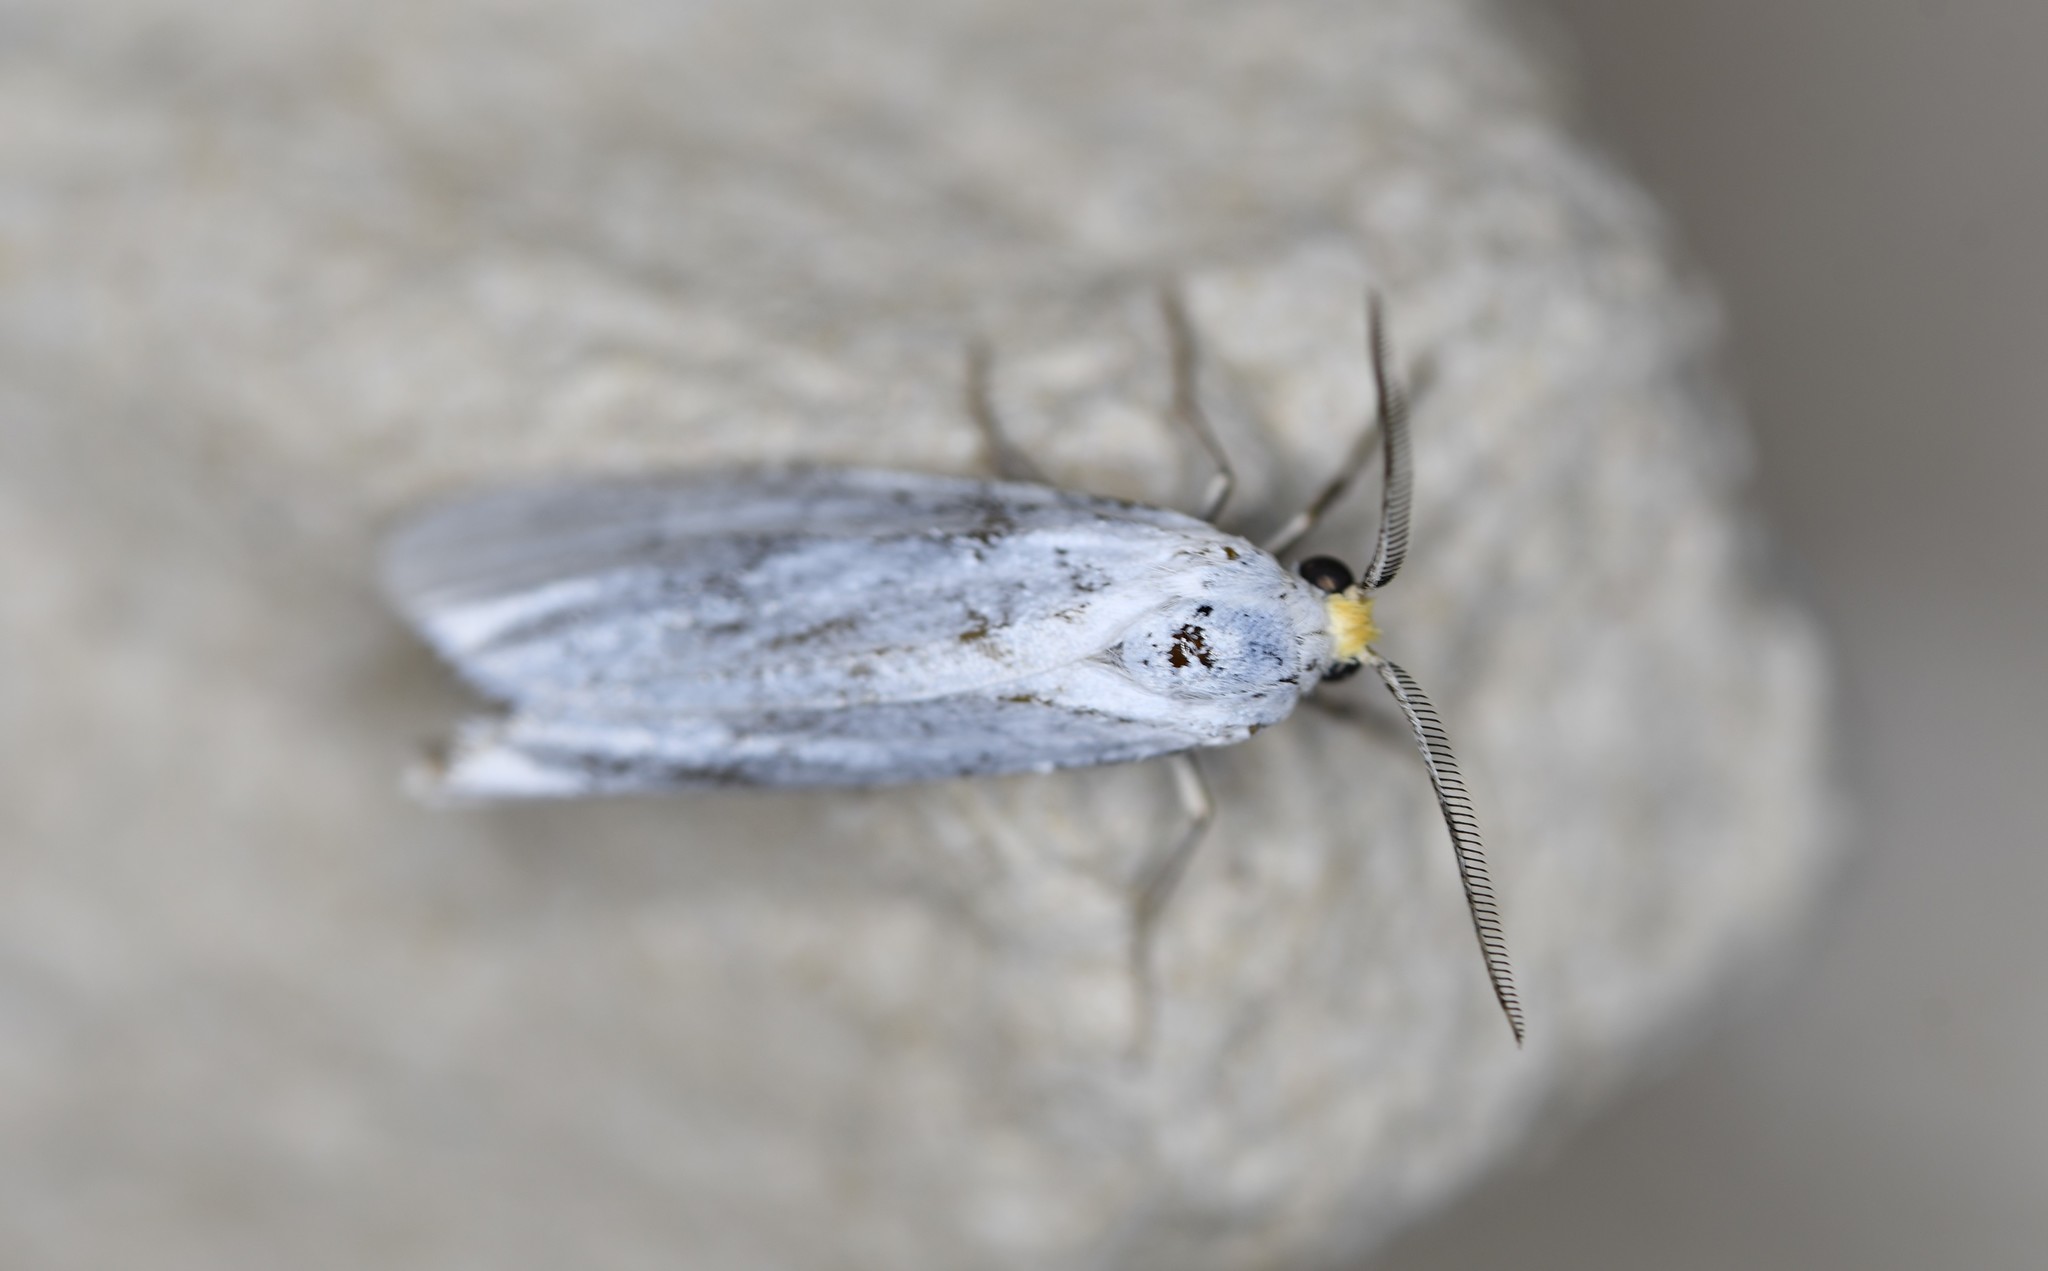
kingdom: Animalia
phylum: Arthropoda
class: Insecta
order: Lepidoptera
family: Erebidae
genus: Coscinia
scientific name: Coscinia cribraria
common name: Speckled footman
